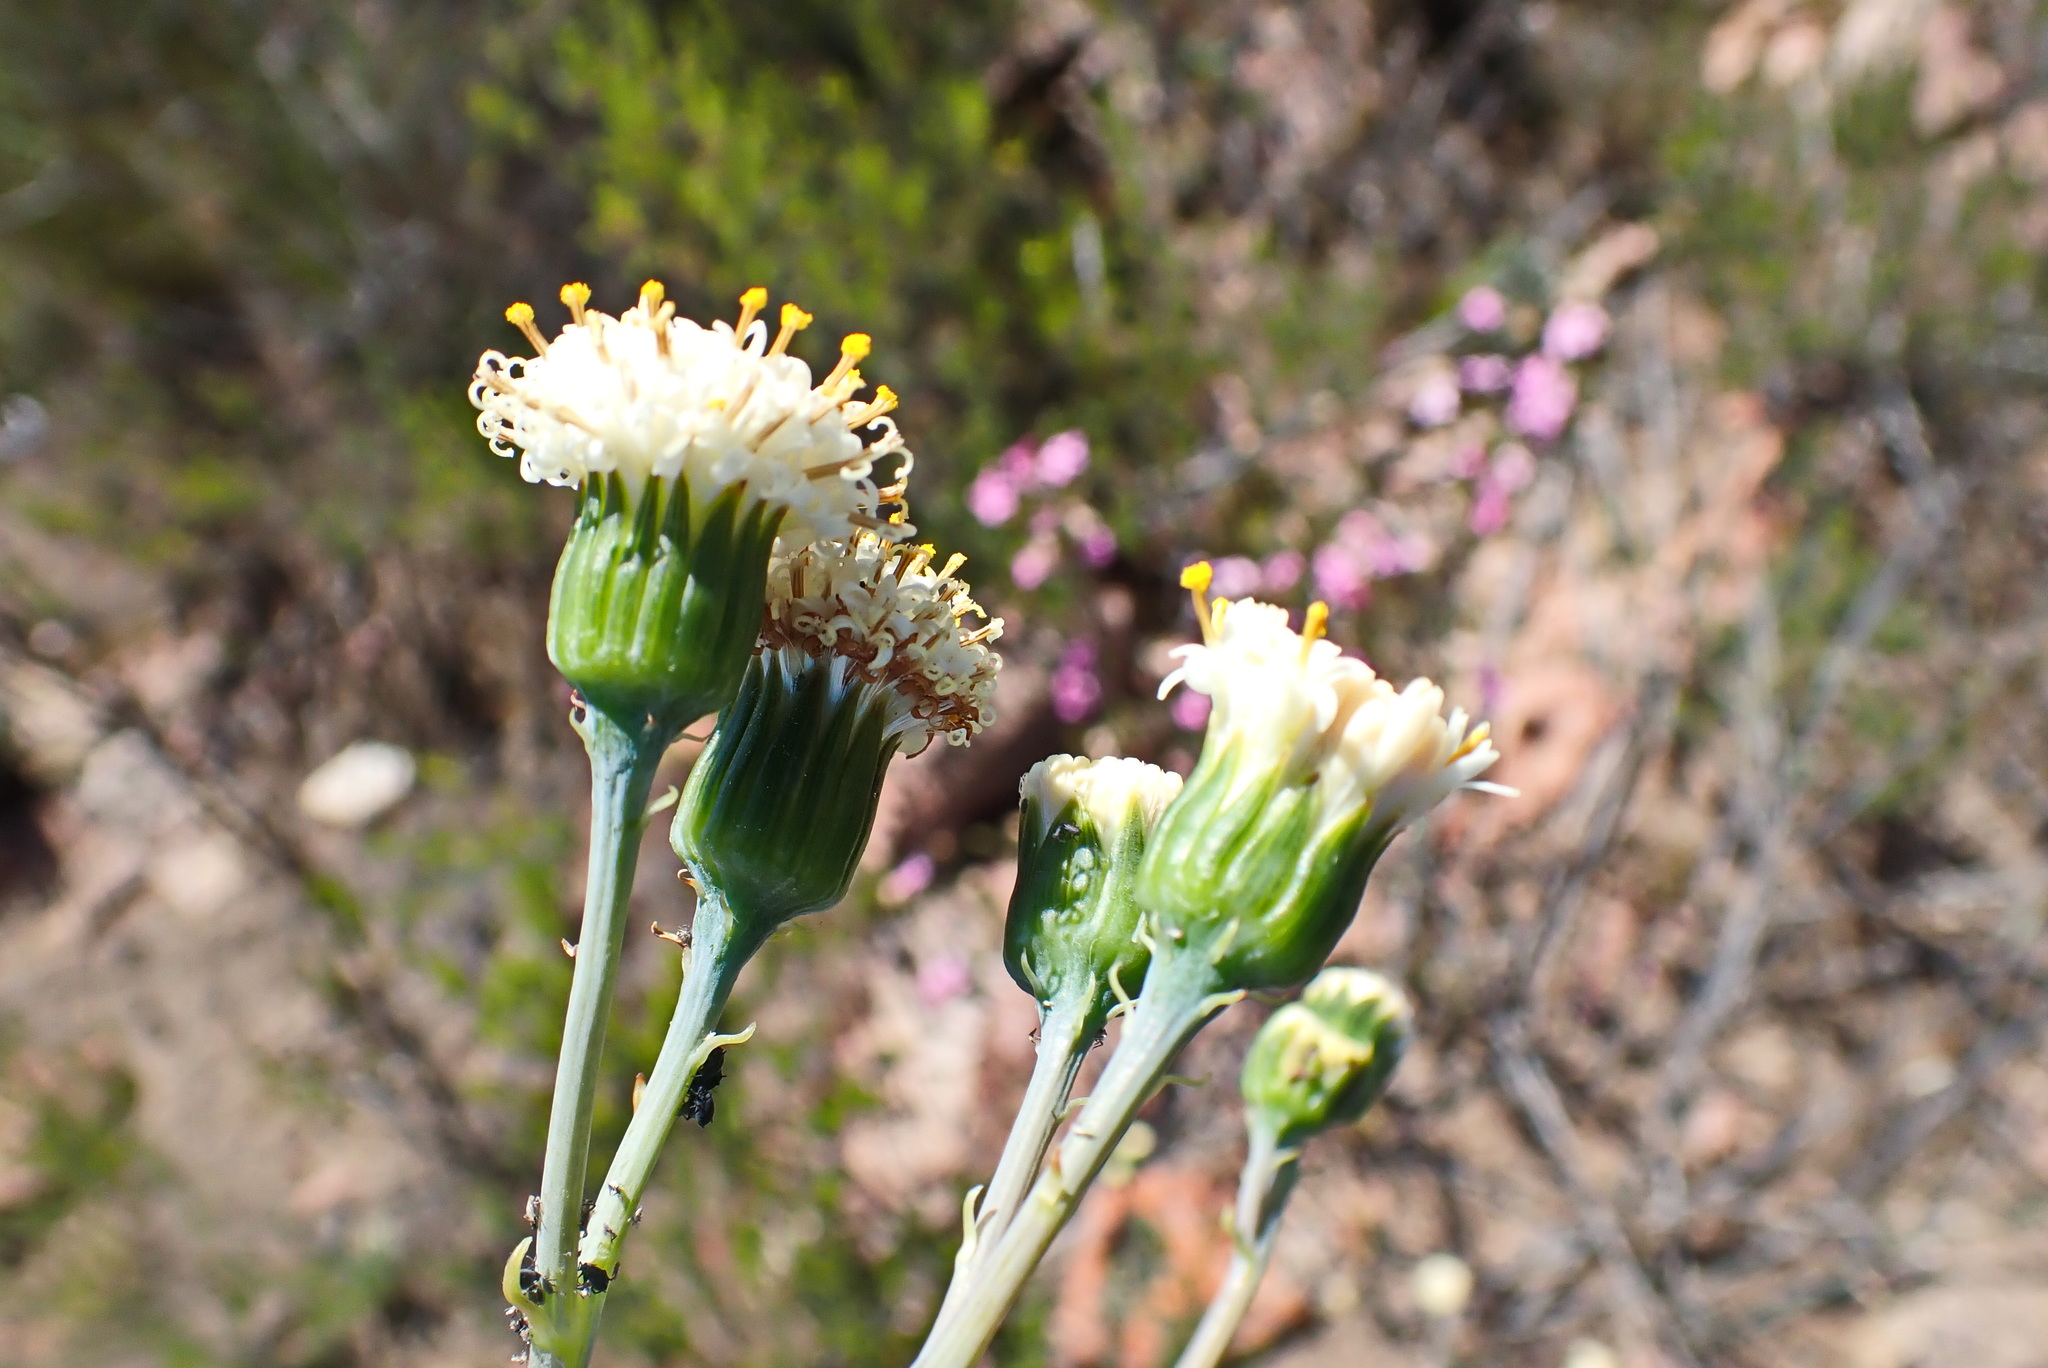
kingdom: Plantae
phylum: Tracheophyta
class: Magnoliopsida
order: Asterales
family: Asteraceae
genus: Curio
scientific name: Curio talinoides
